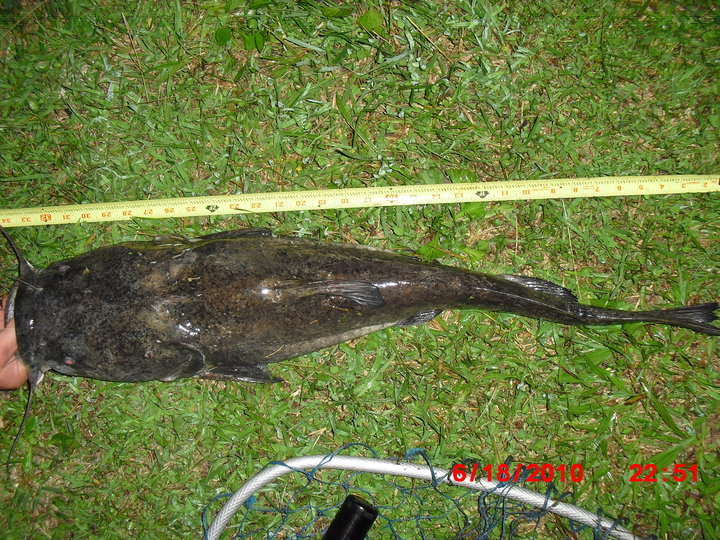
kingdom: Animalia
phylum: Chordata
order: Siluriformes
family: Ictaluridae
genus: Pylodictis
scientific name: Pylodictis olivaris
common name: Flathead catfish
